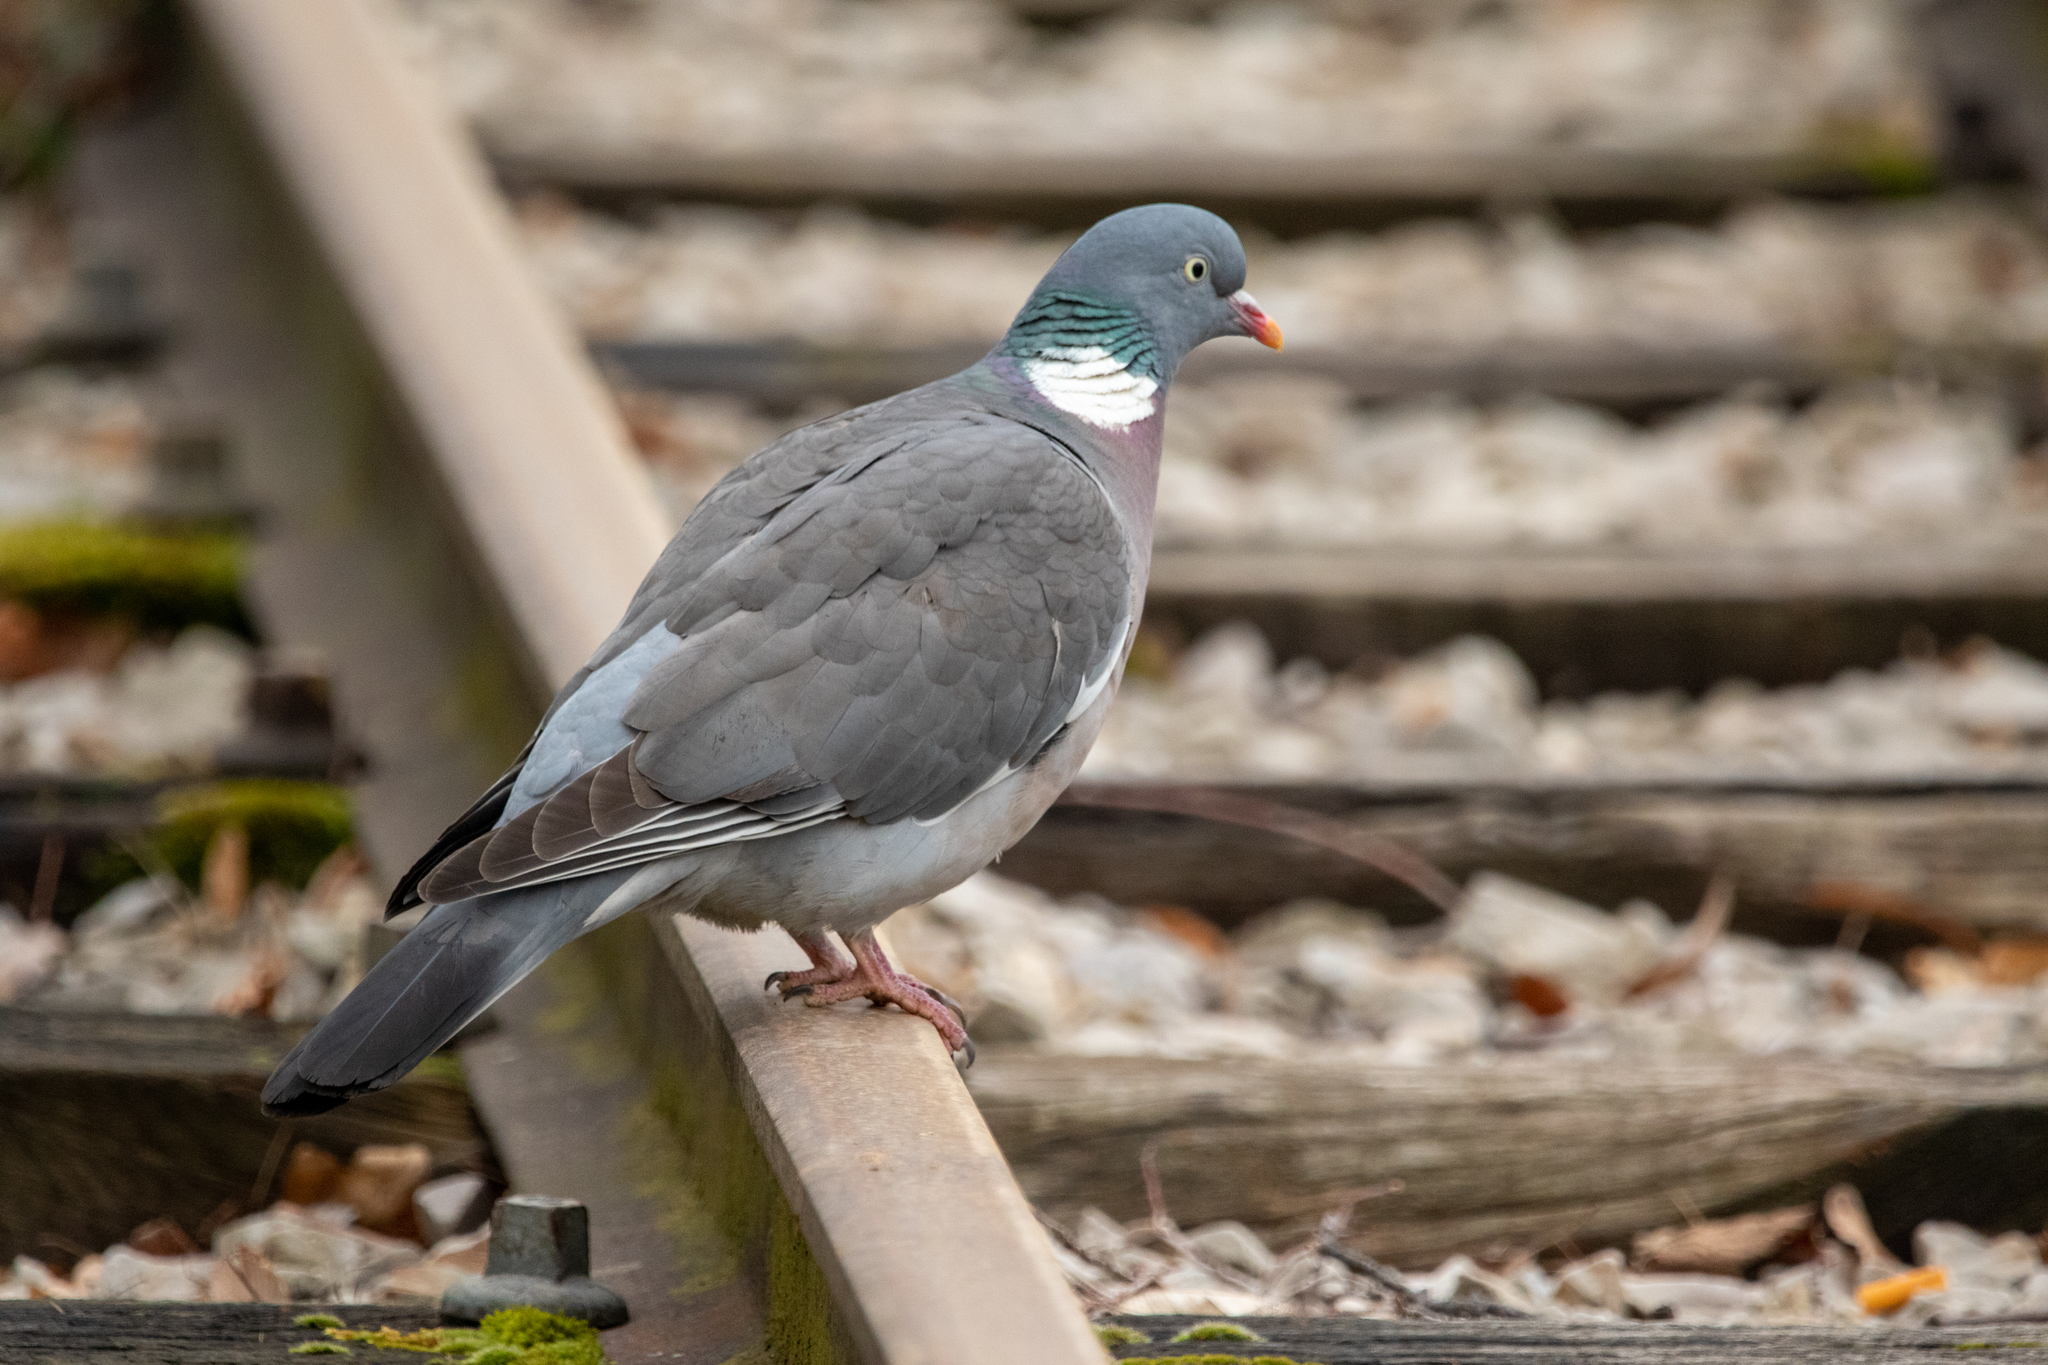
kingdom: Animalia
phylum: Chordata
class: Aves
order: Columbiformes
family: Columbidae
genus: Columba
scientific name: Columba palumbus
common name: Common wood pigeon
